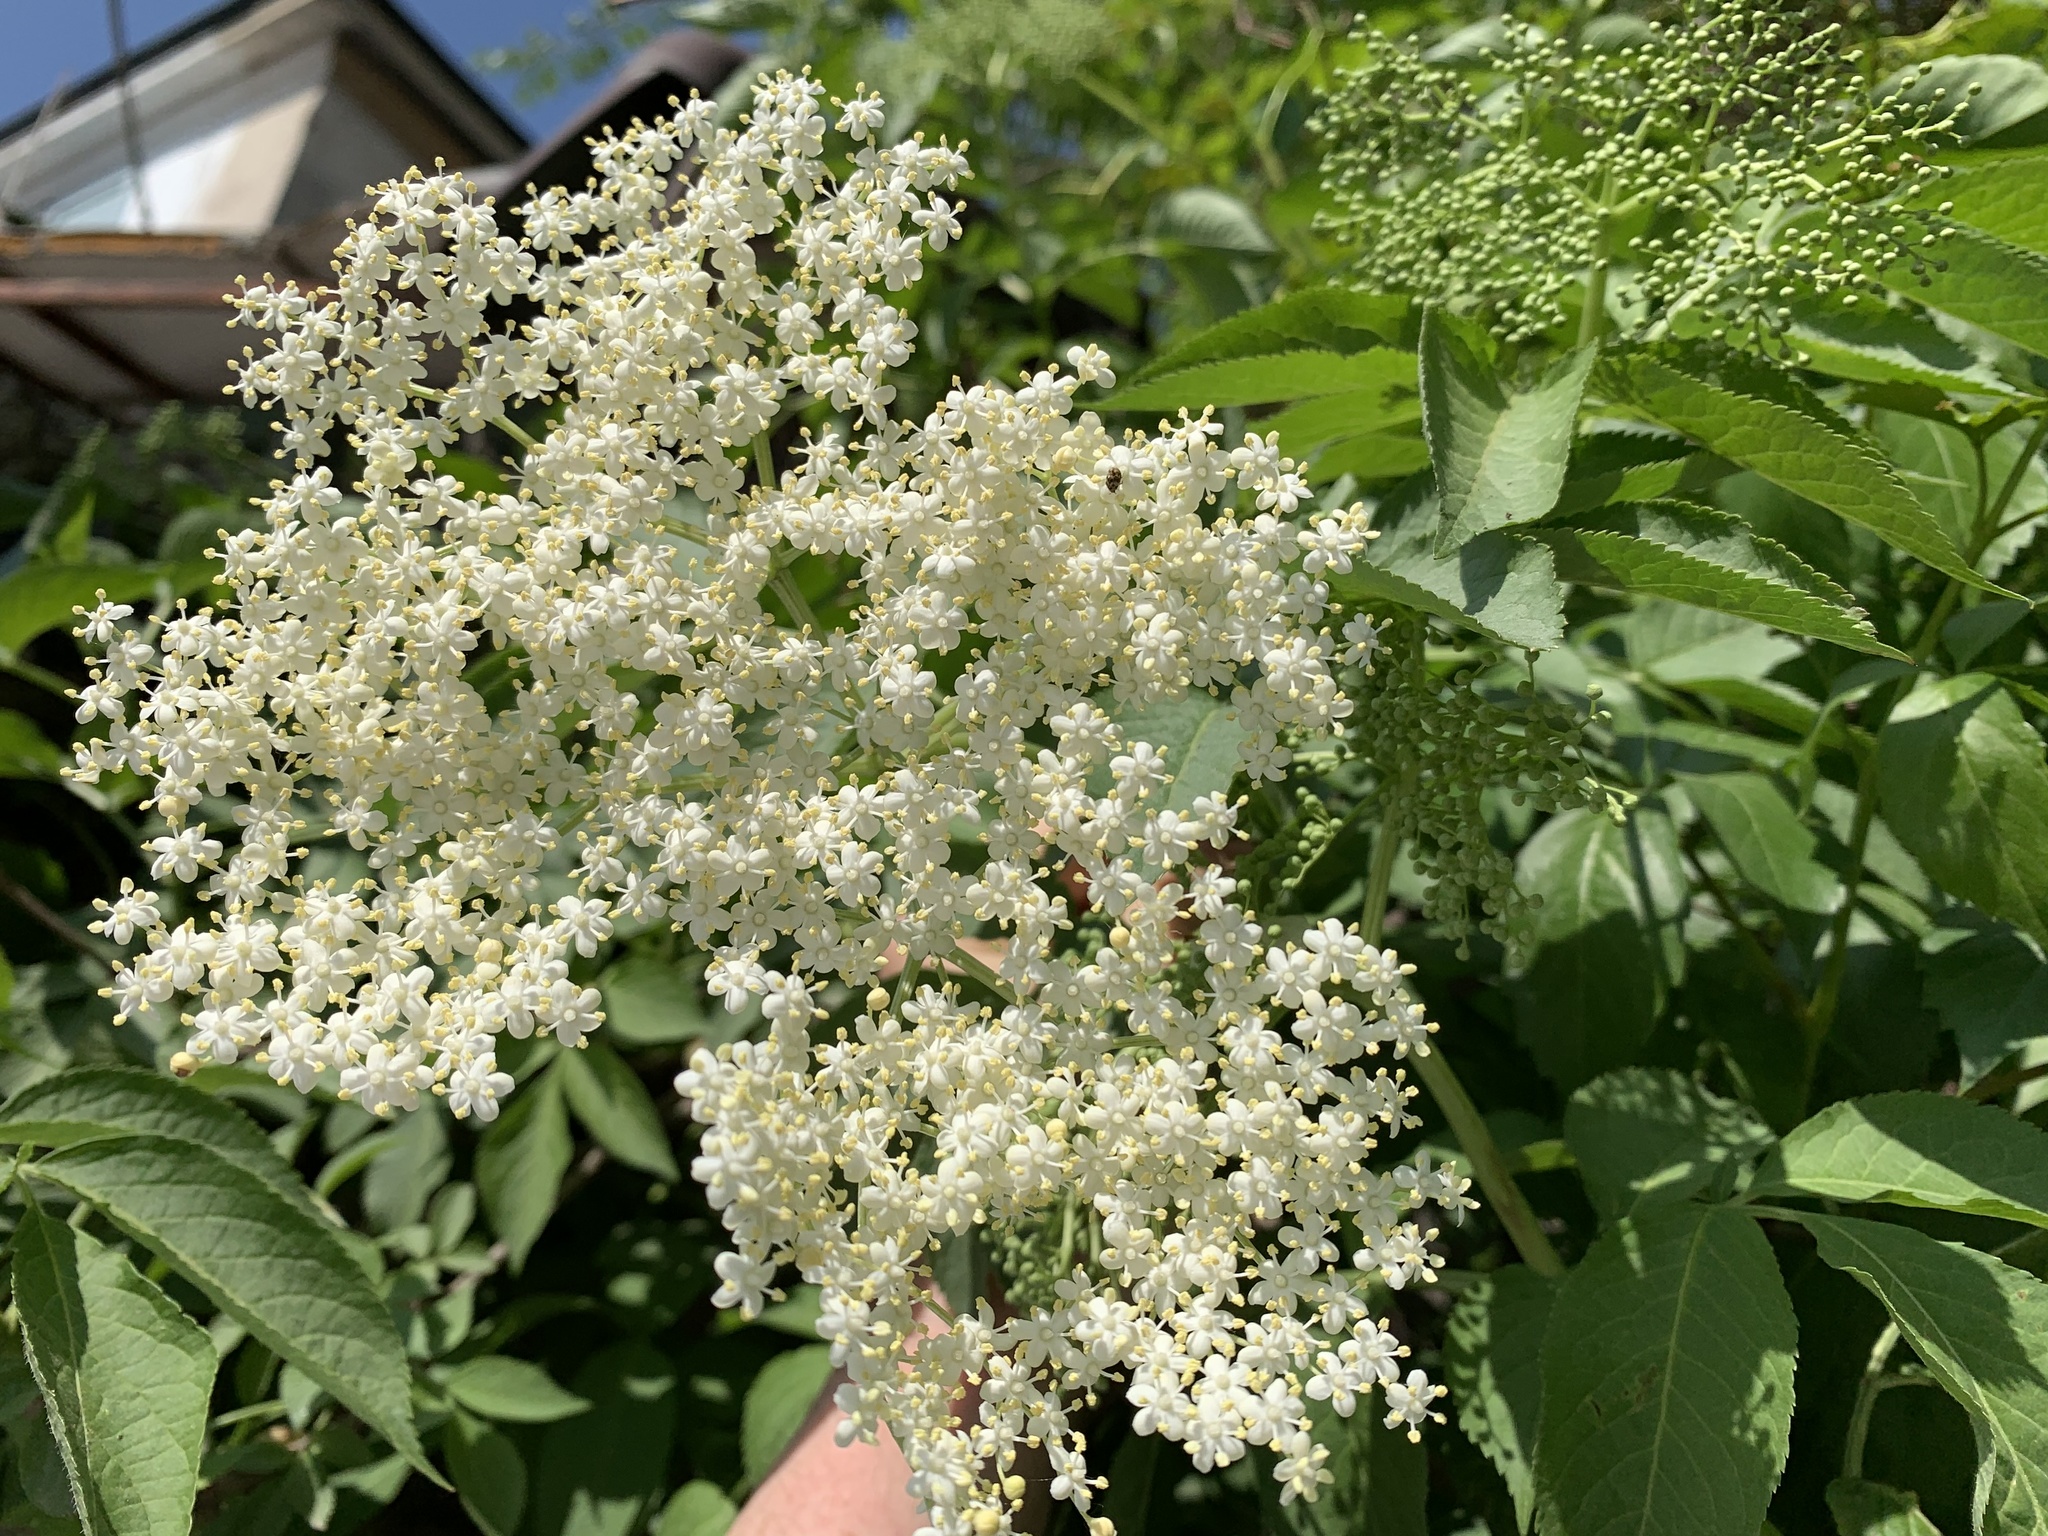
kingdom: Plantae
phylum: Tracheophyta
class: Magnoliopsida
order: Dipsacales
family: Viburnaceae
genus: Sambucus
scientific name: Sambucus nigra
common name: Elder
